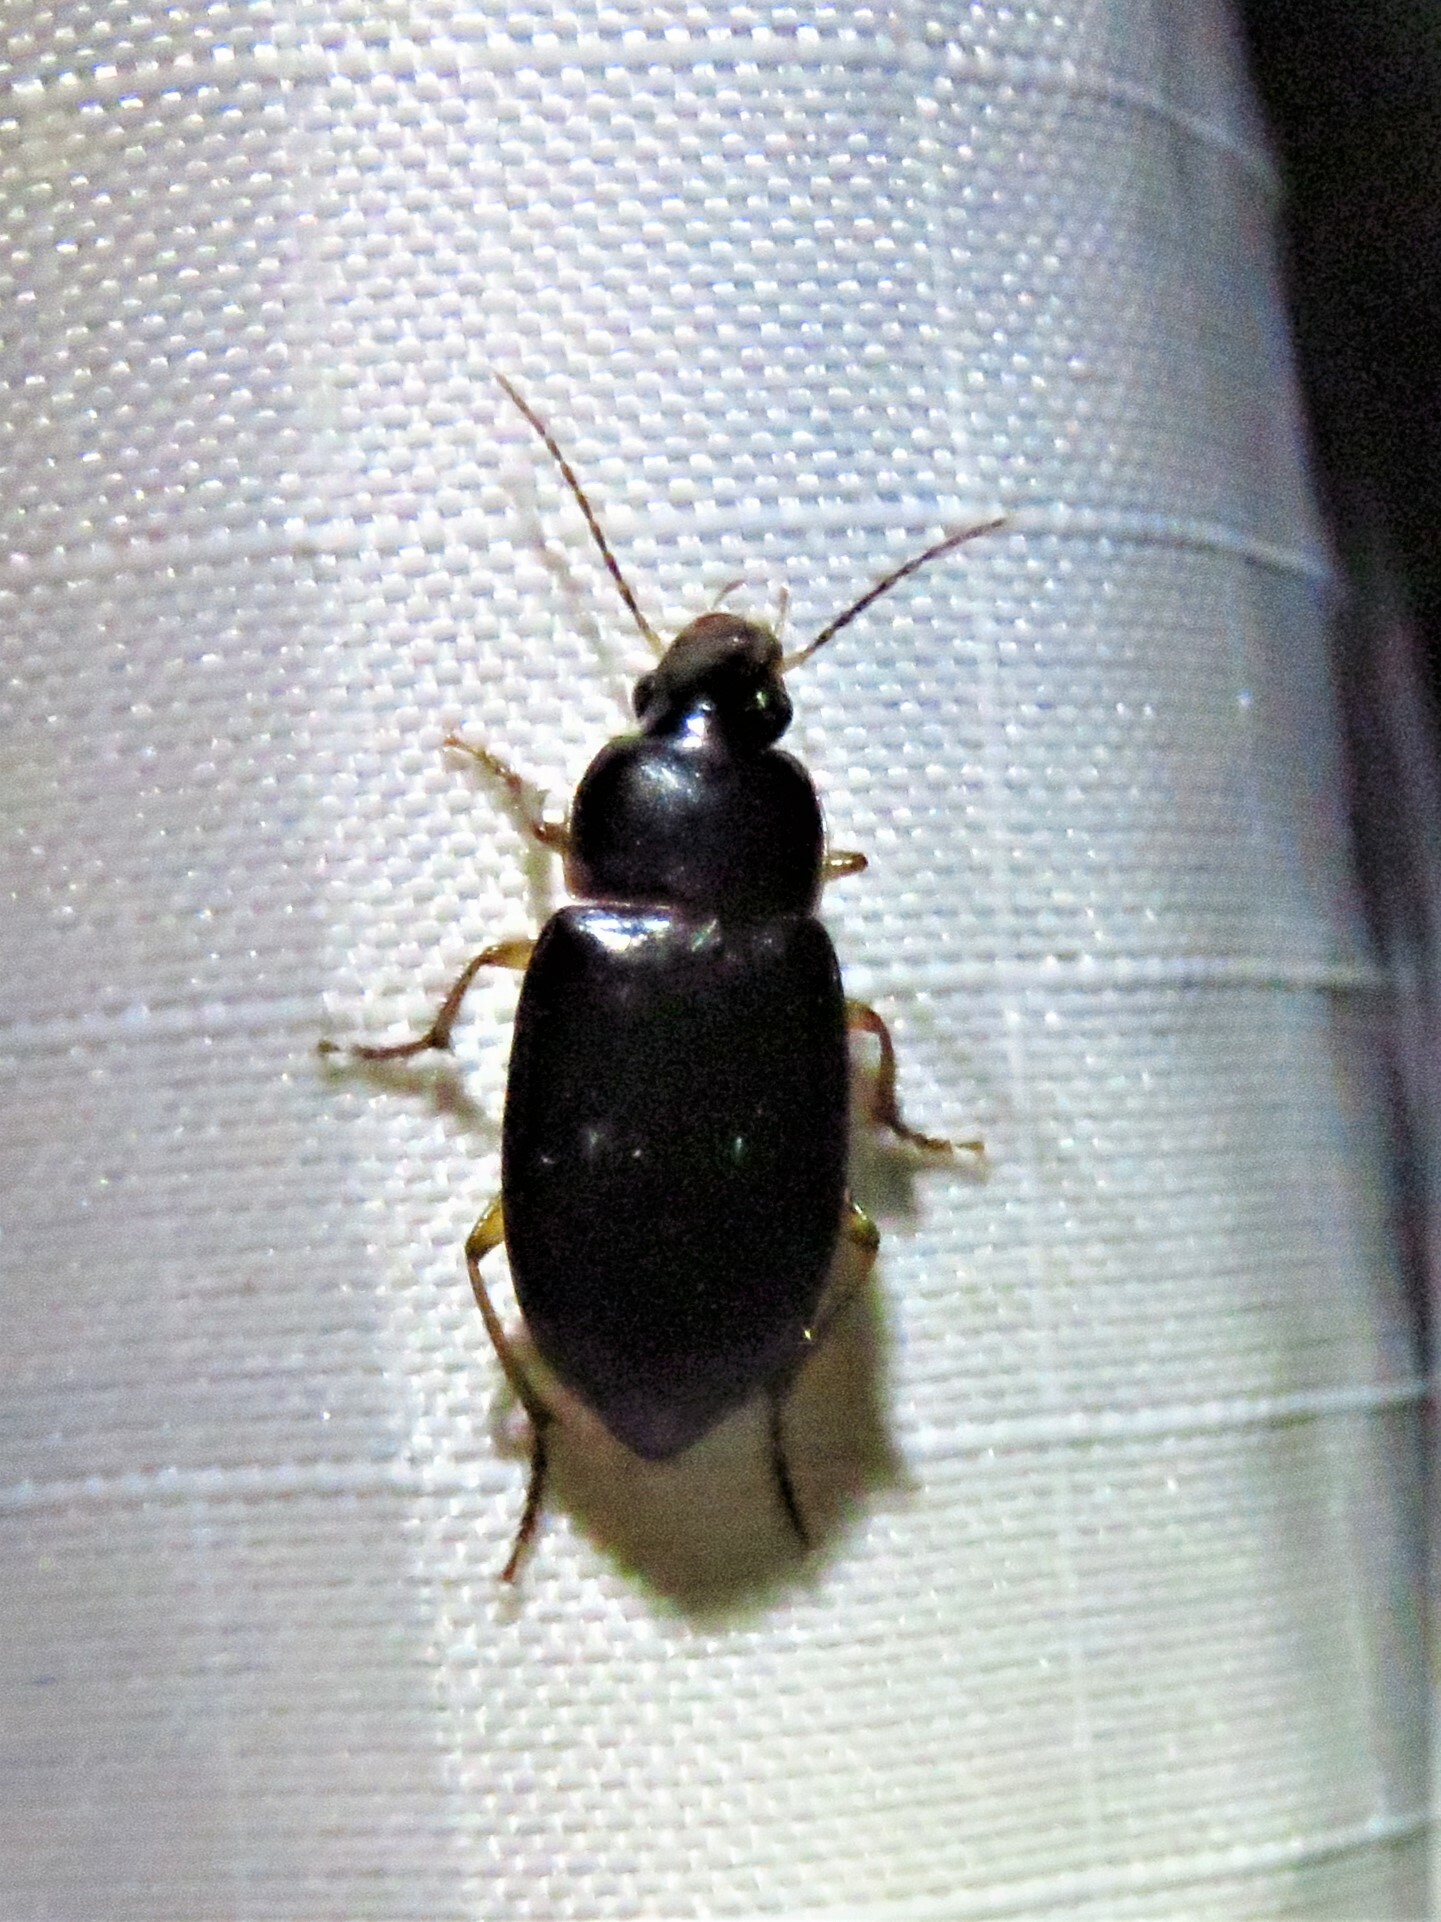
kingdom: Animalia
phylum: Arthropoda
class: Insecta
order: Coleoptera
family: Carabidae
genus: Notiobia
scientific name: Notiobia terminata
